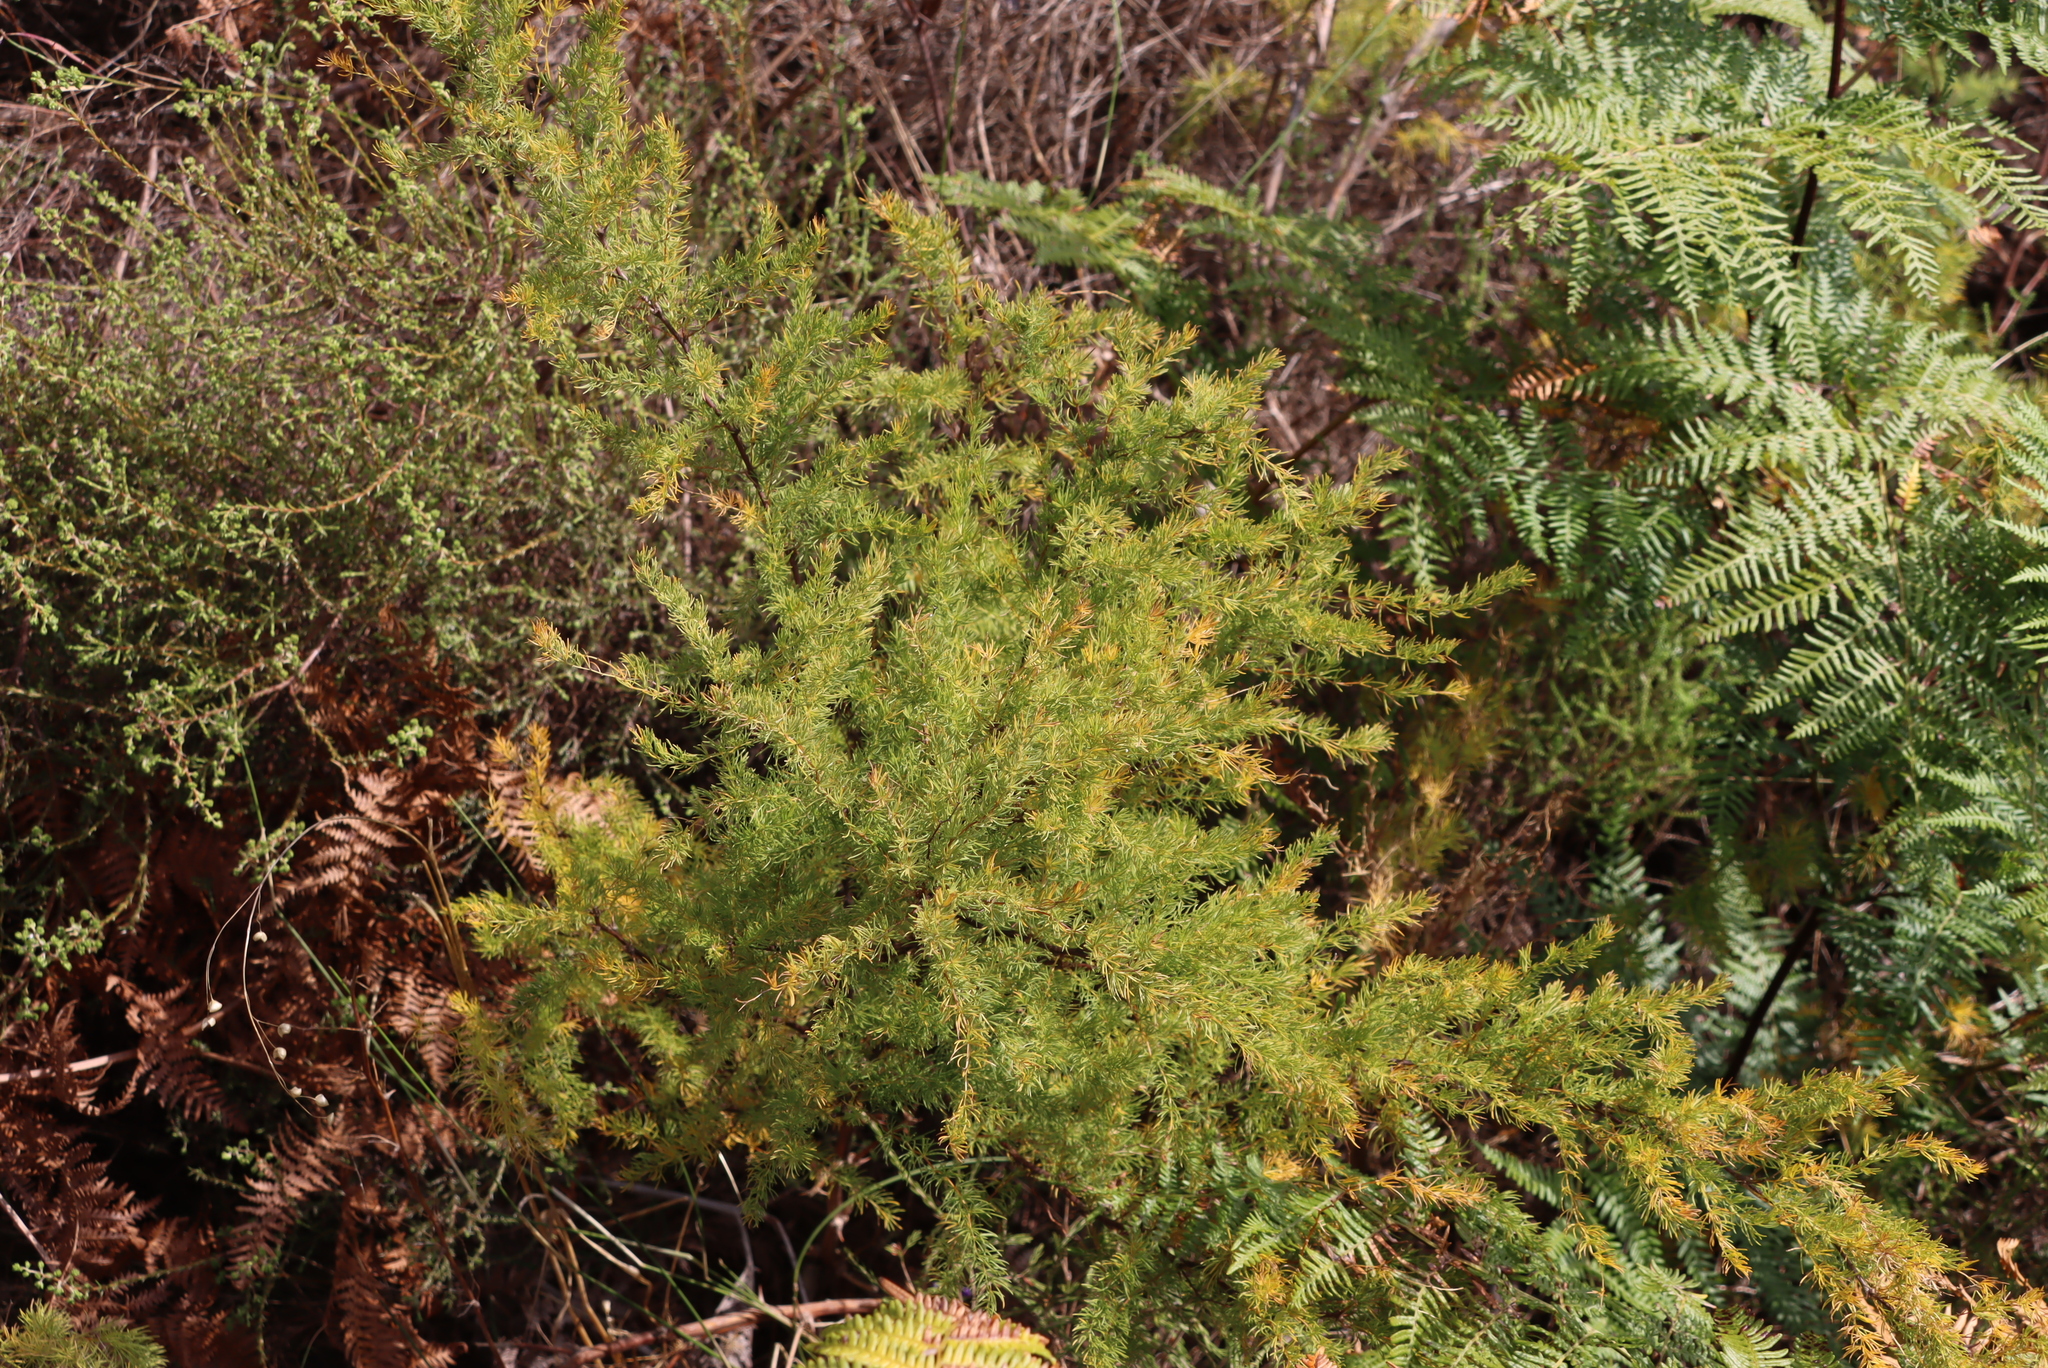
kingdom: Plantae
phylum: Tracheophyta
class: Liliopsida
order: Asparagales
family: Asparagaceae
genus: Asparagus
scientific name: Asparagus rubicundus
